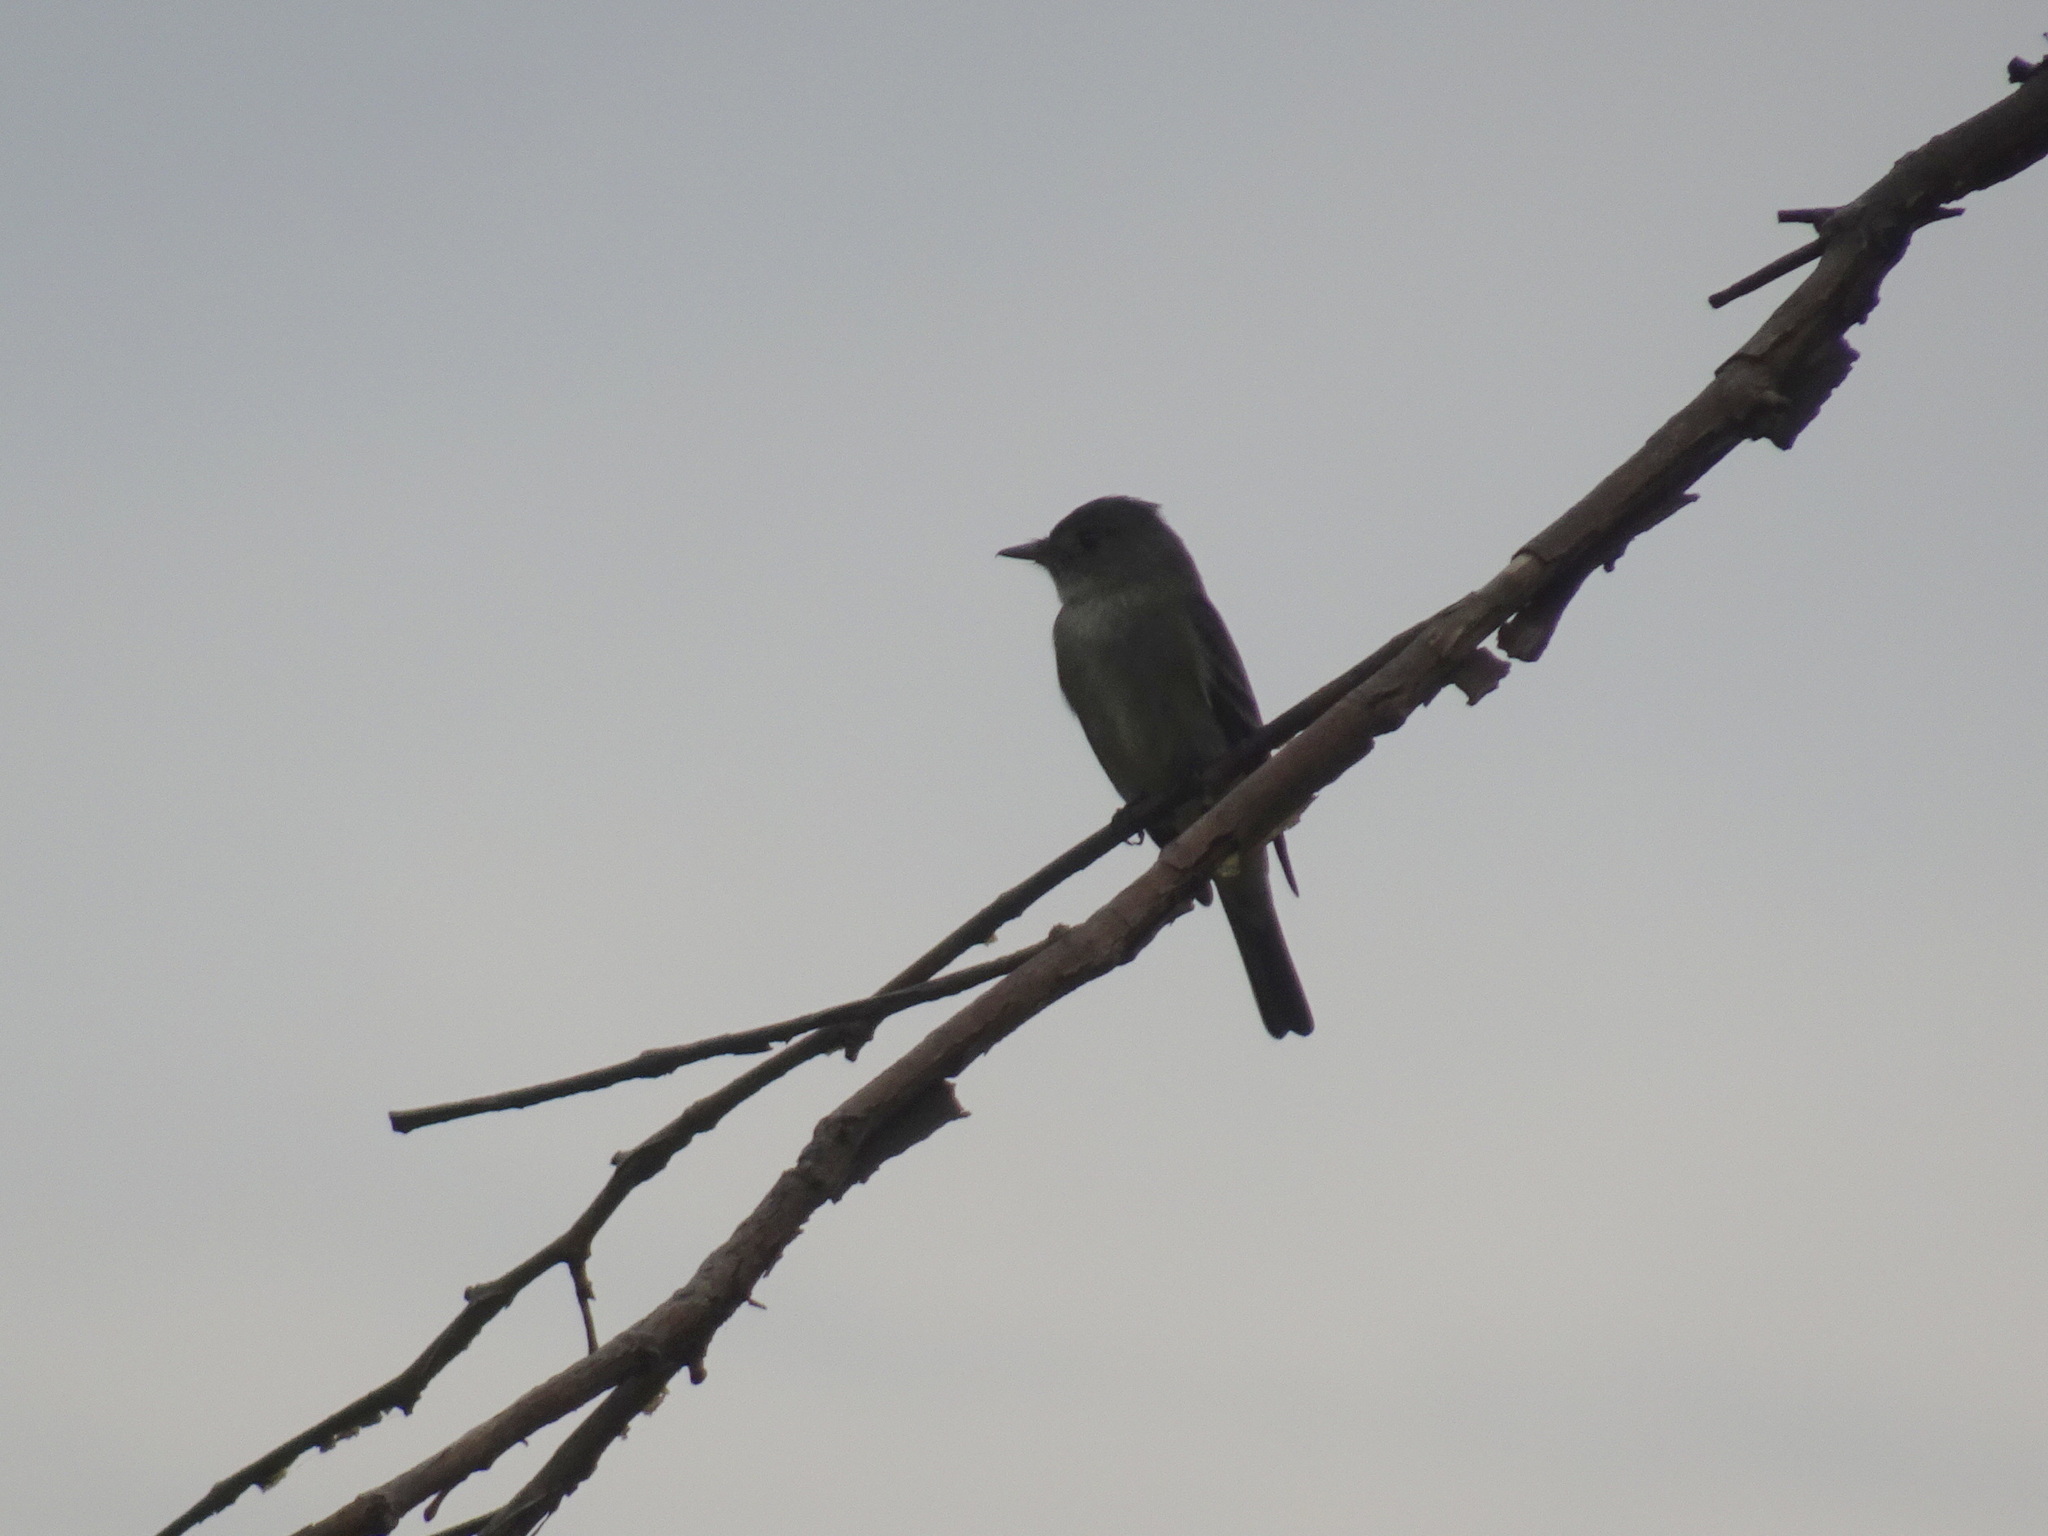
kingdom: Animalia
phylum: Chordata
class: Aves
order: Passeriformes
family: Tyrannidae
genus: Contopus
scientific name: Contopus virens
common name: Eastern wood-pewee
